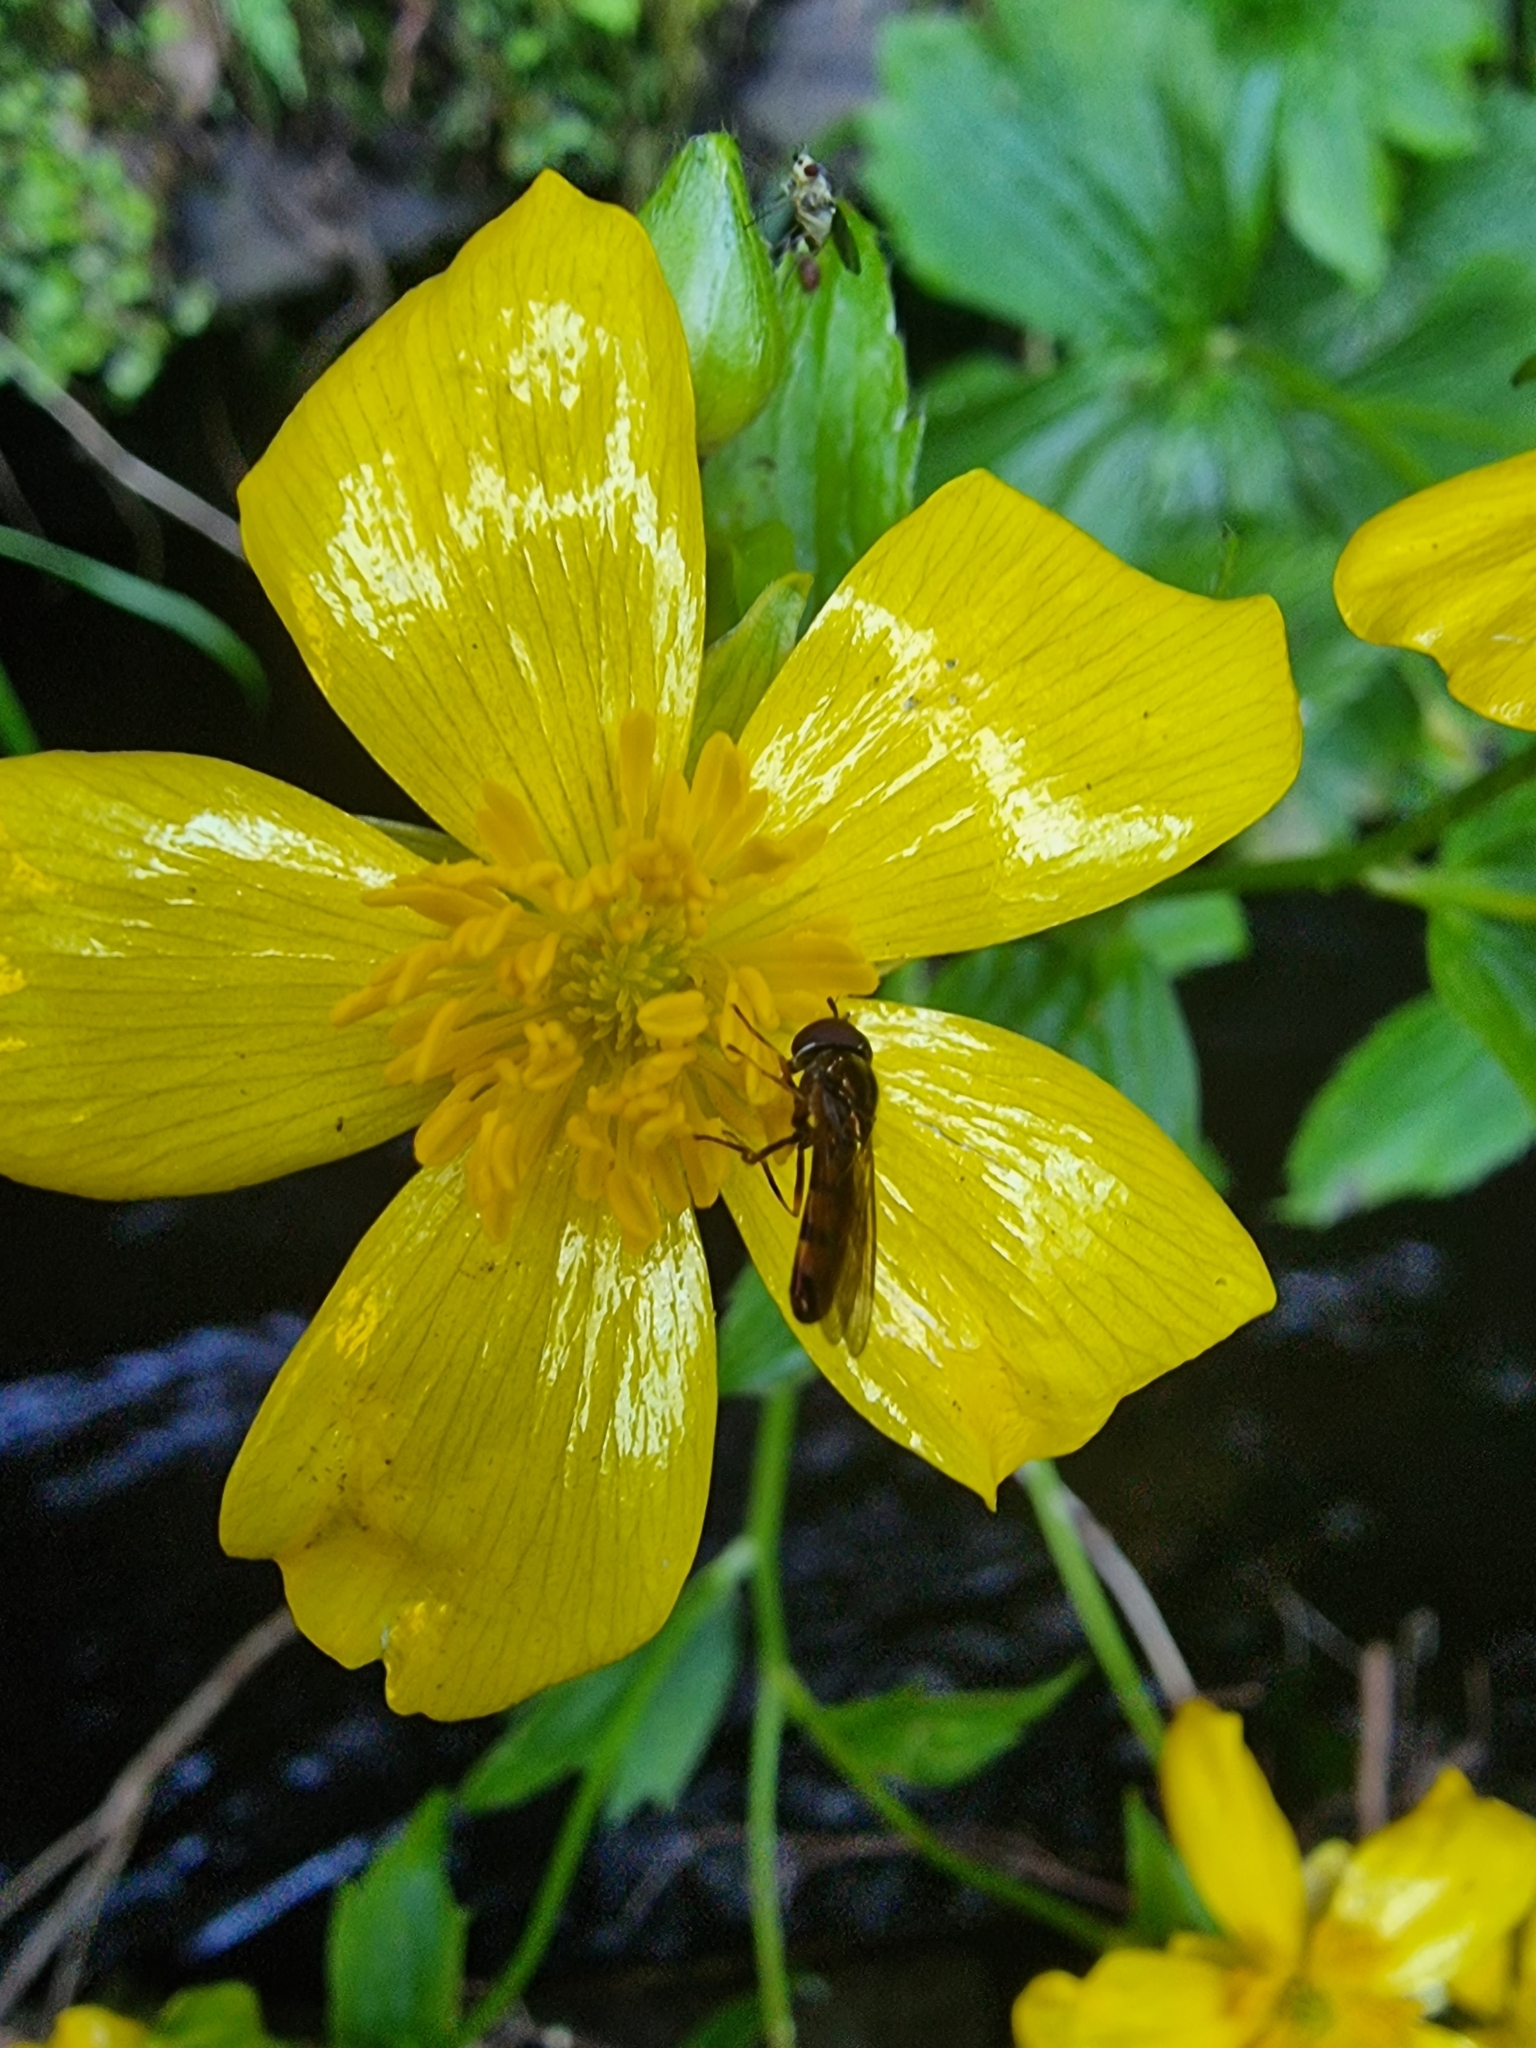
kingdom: Animalia
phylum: Arthropoda
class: Insecta
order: Diptera
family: Syrphidae
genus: Melanostoma
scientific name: Melanostoma mellina
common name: Hover fly
